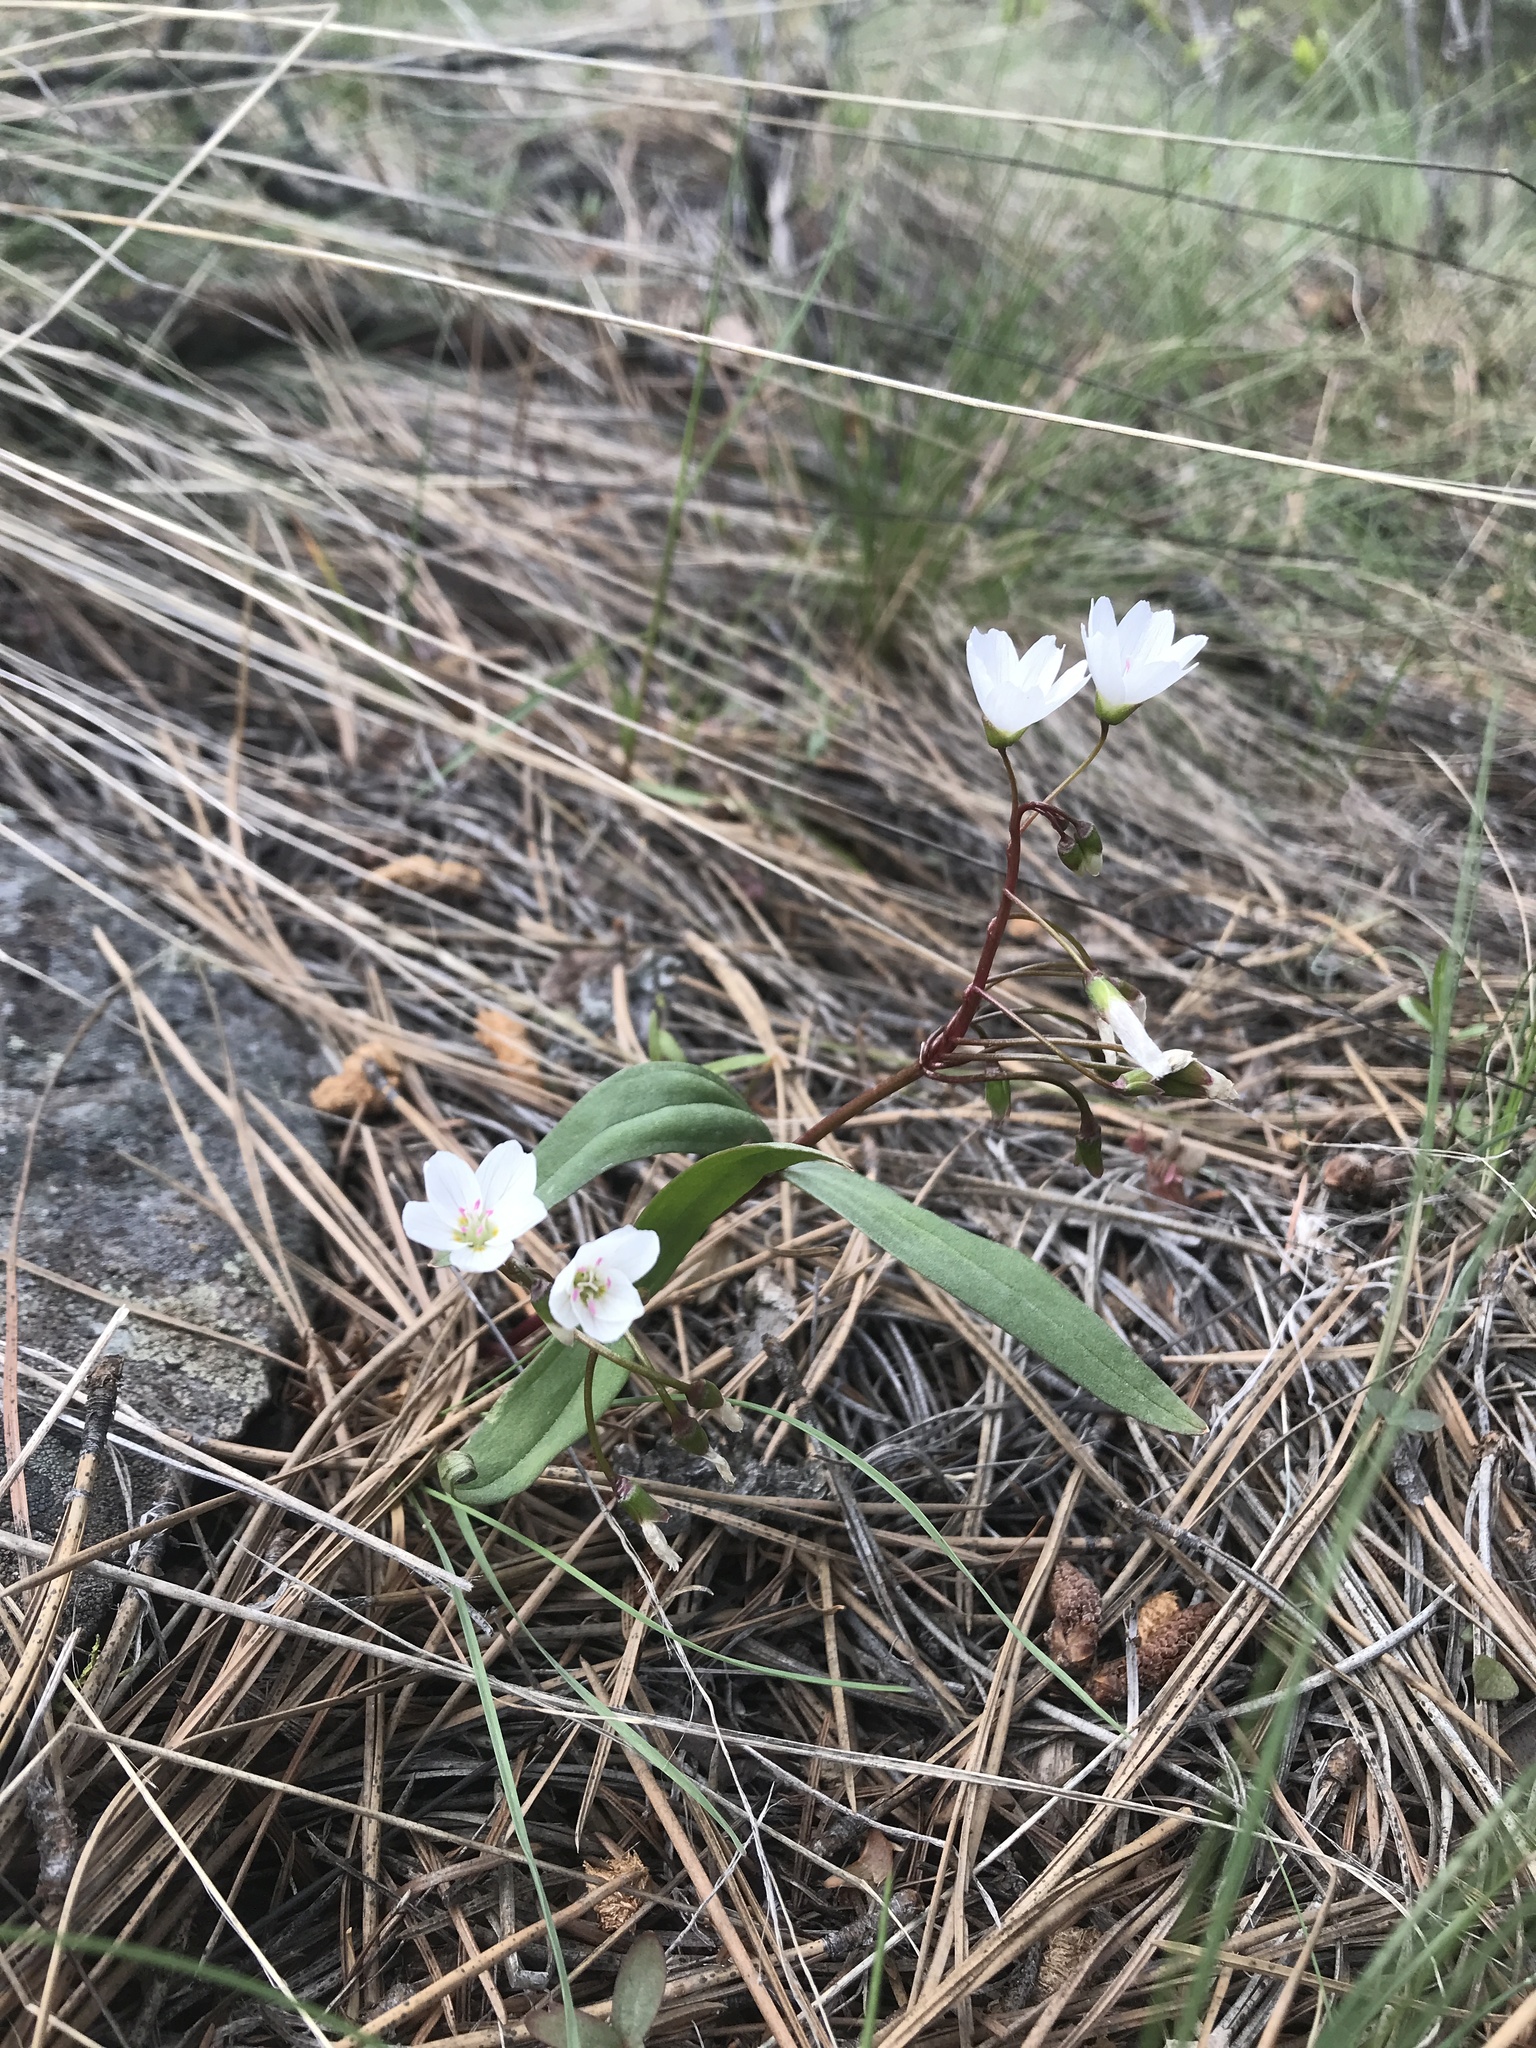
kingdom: Plantae
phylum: Tracheophyta
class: Magnoliopsida
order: Caryophyllales
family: Montiaceae
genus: Claytonia
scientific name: Claytonia lanceolata
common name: Western spring-beauty
